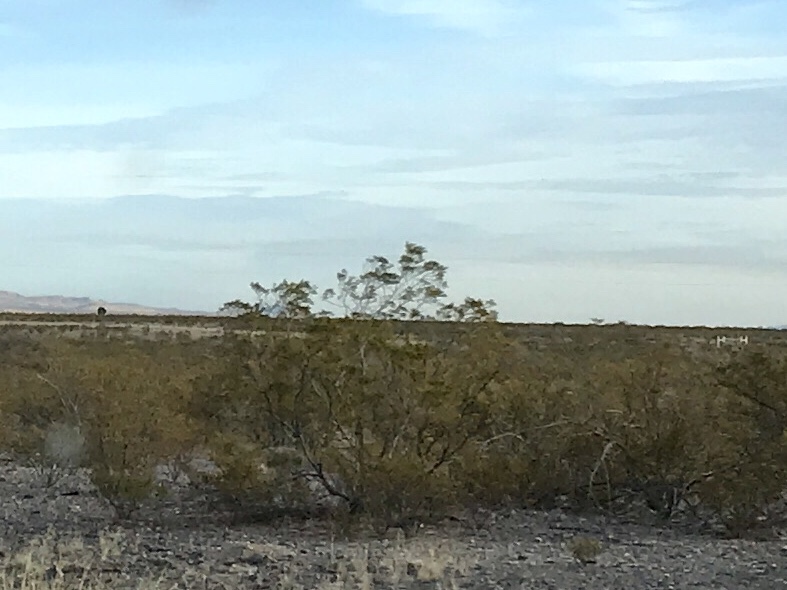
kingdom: Plantae
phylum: Tracheophyta
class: Magnoliopsida
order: Zygophyllales
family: Zygophyllaceae
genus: Larrea
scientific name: Larrea tridentata
